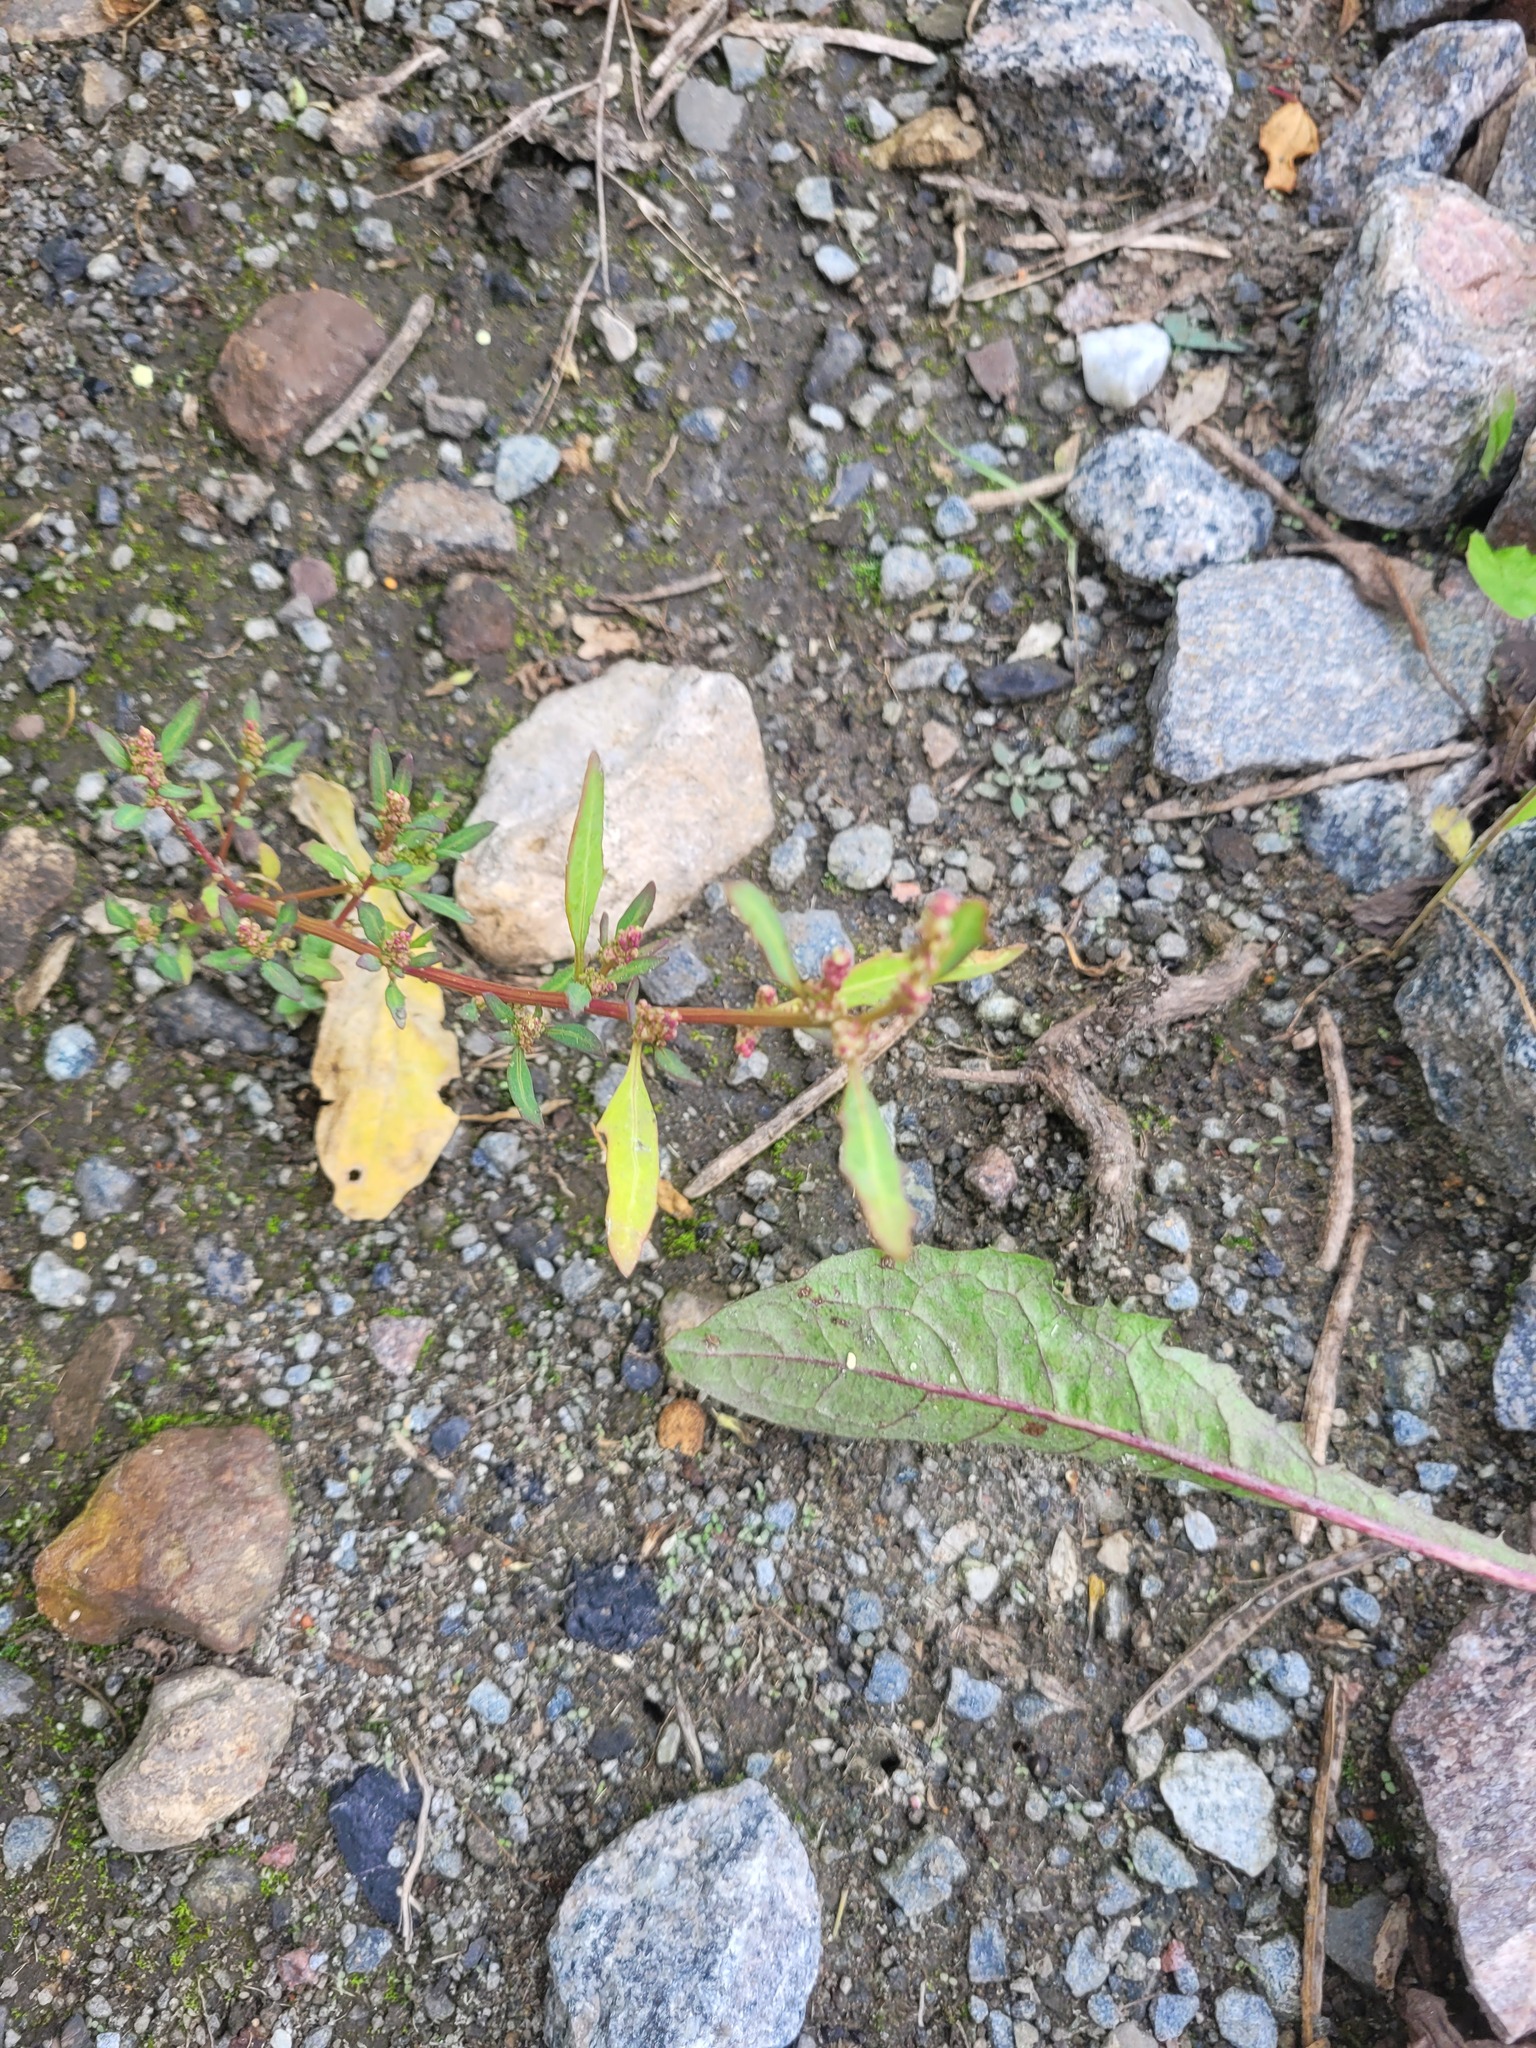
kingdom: Plantae
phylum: Tracheophyta
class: Magnoliopsida
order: Caryophyllales
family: Amaranthaceae
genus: Oxybasis
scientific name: Oxybasis glauca
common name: Glaucous goosefoot
